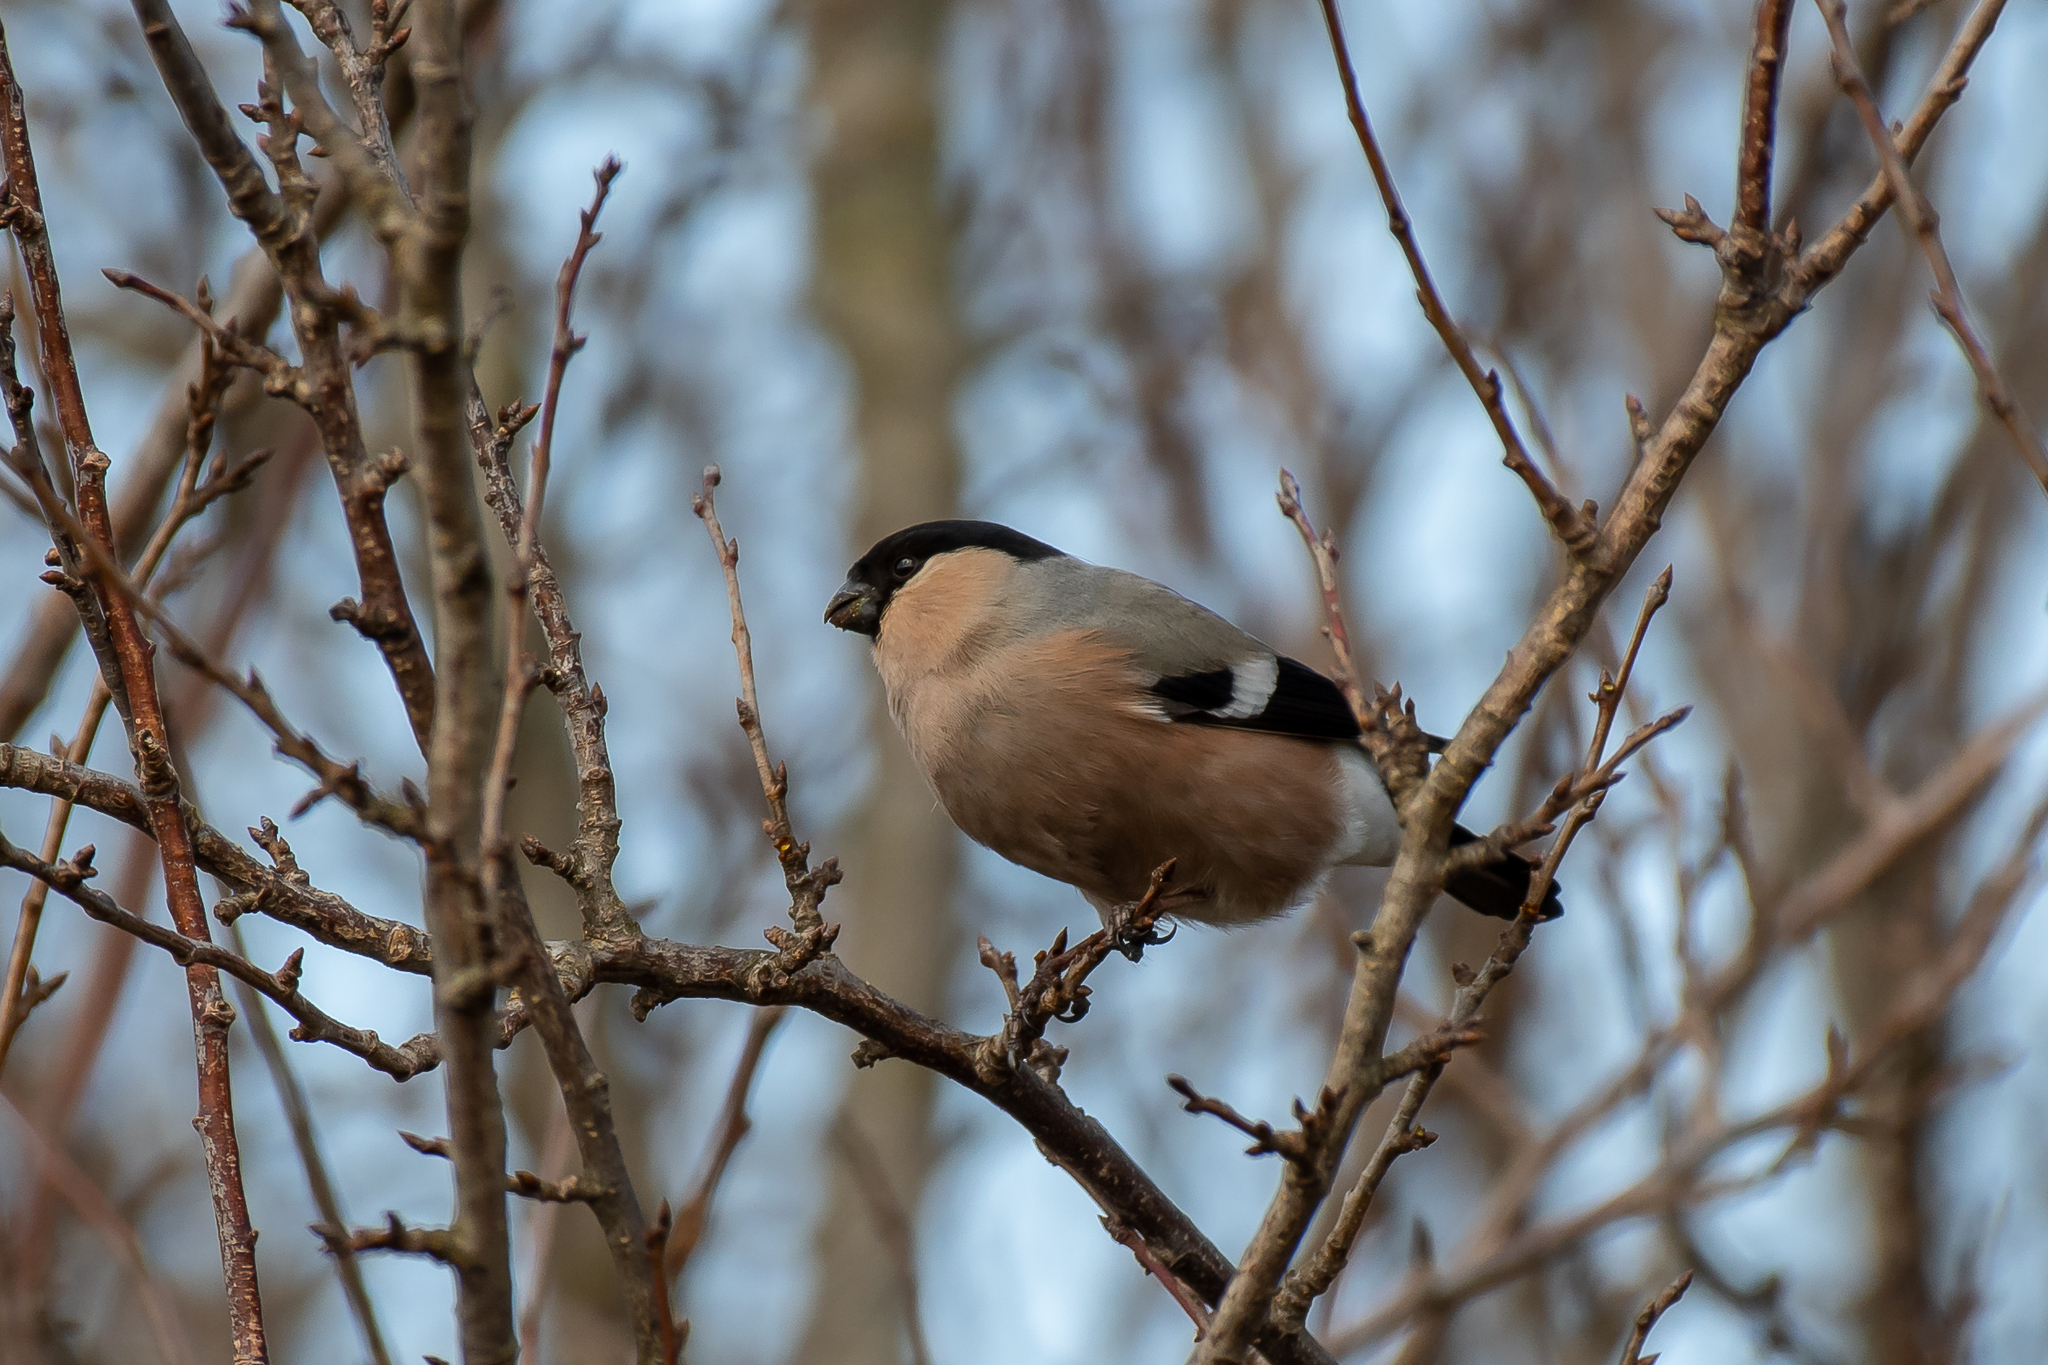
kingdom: Animalia
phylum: Chordata
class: Aves
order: Passeriformes
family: Fringillidae
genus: Pyrrhula
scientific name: Pyrrhula pyrrhula
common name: Eurasian bullfinch
